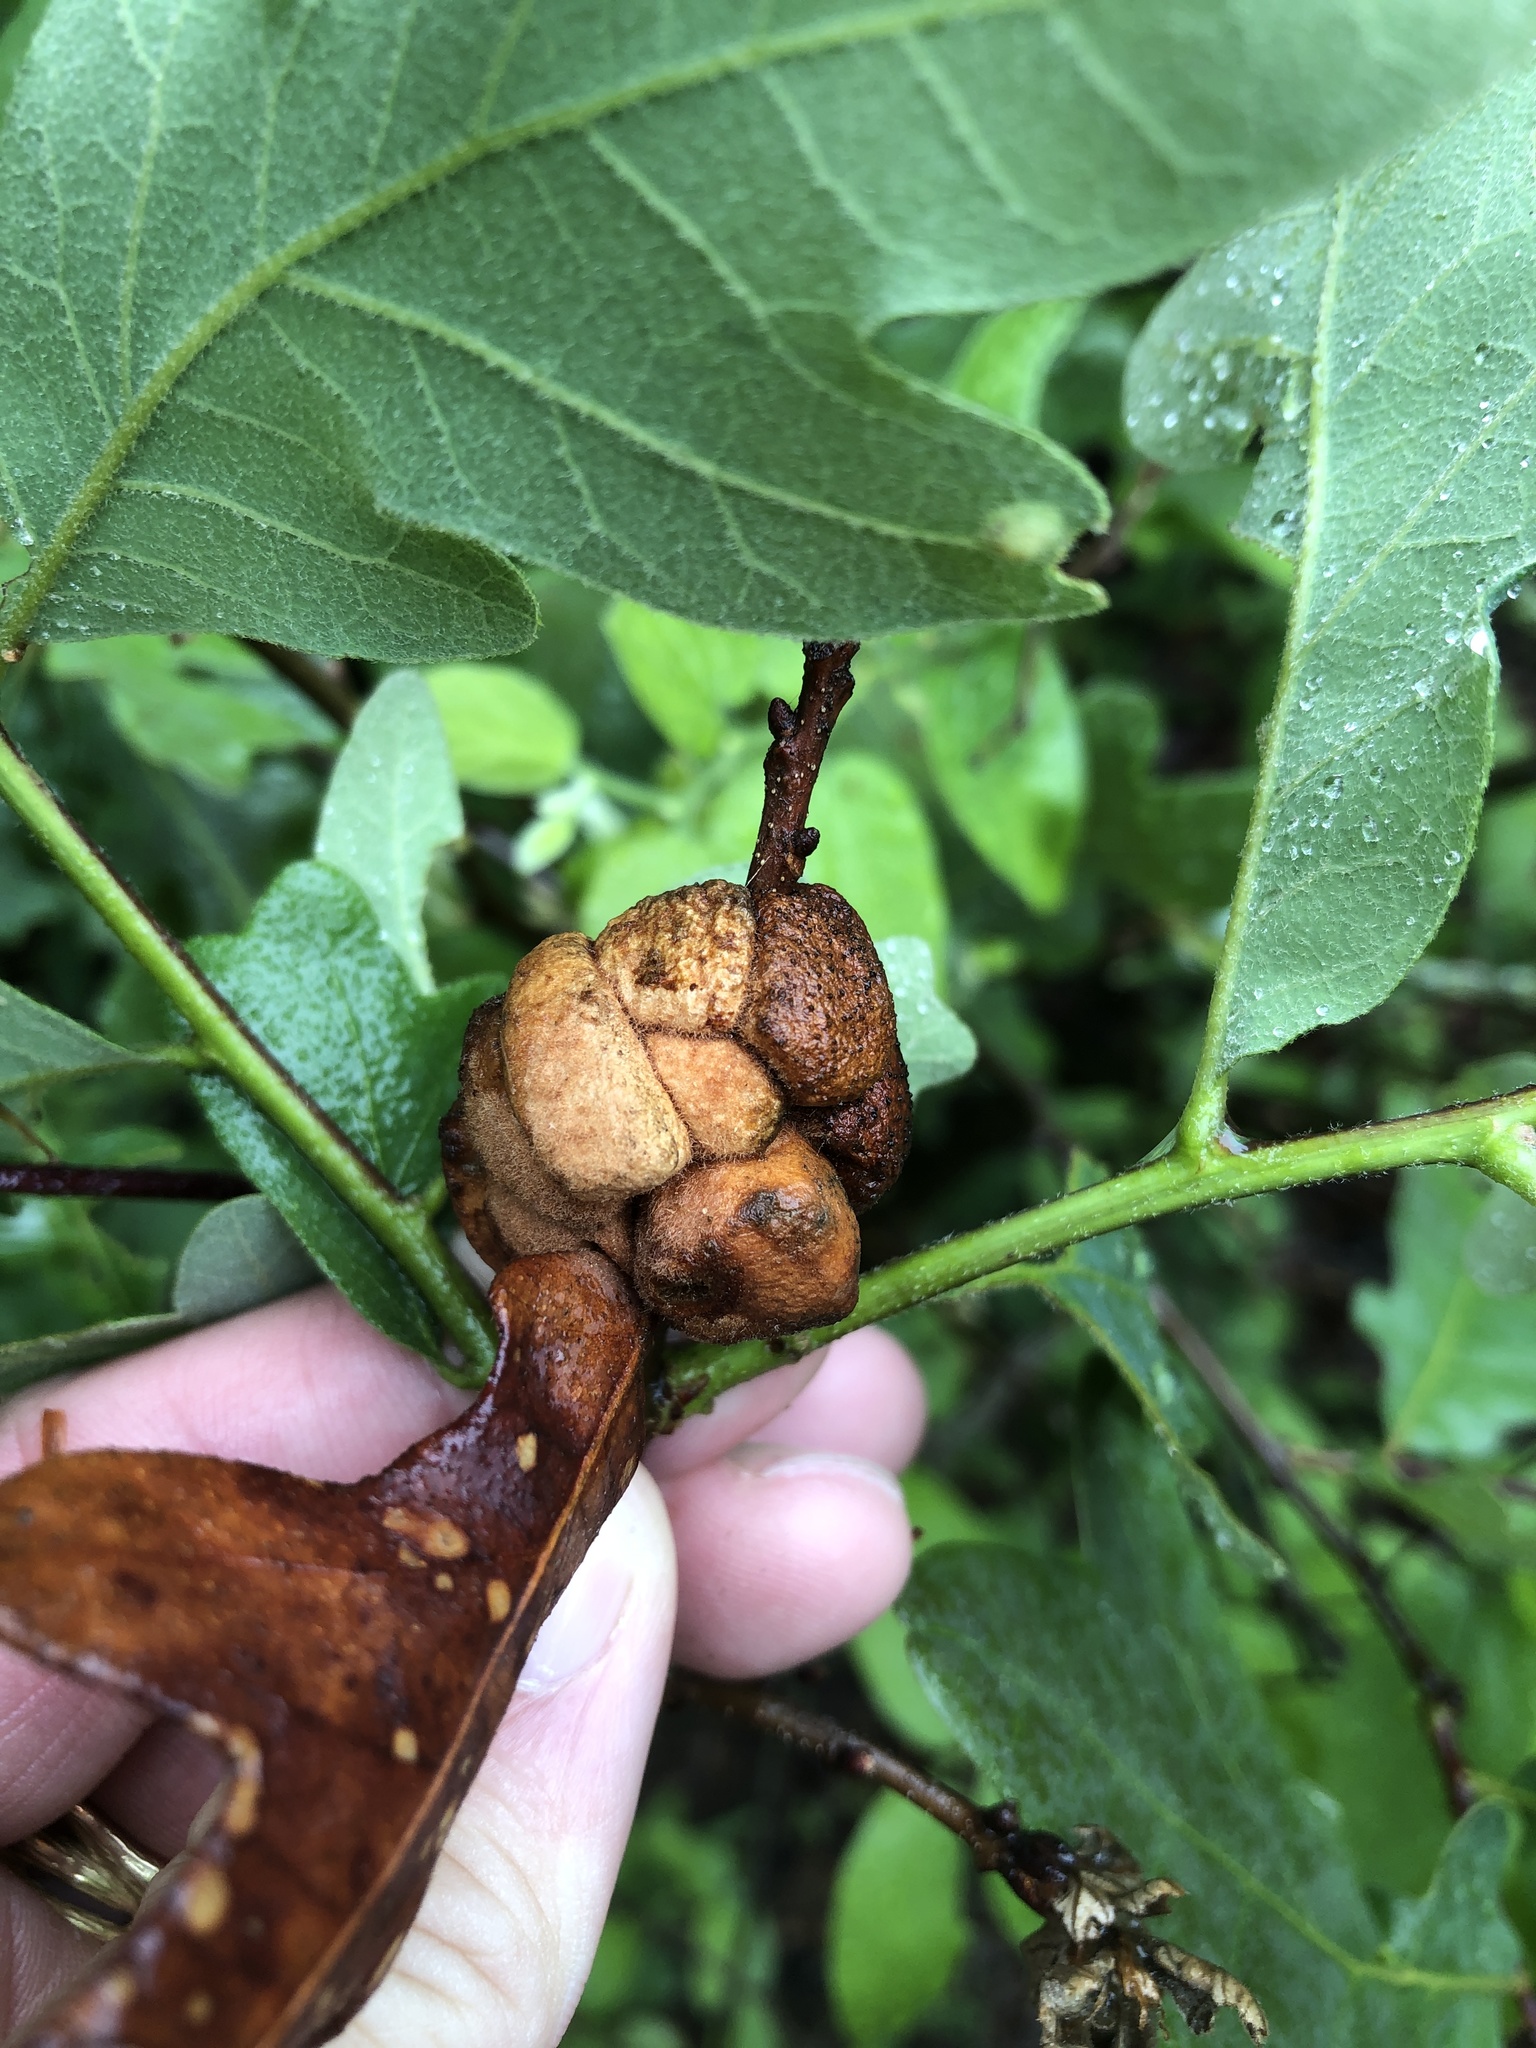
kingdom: Animalia
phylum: Arthropoda
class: Insecta
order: Hymenoptera
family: Cynipidae
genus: Disholcaspis
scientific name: Disholcaspis
